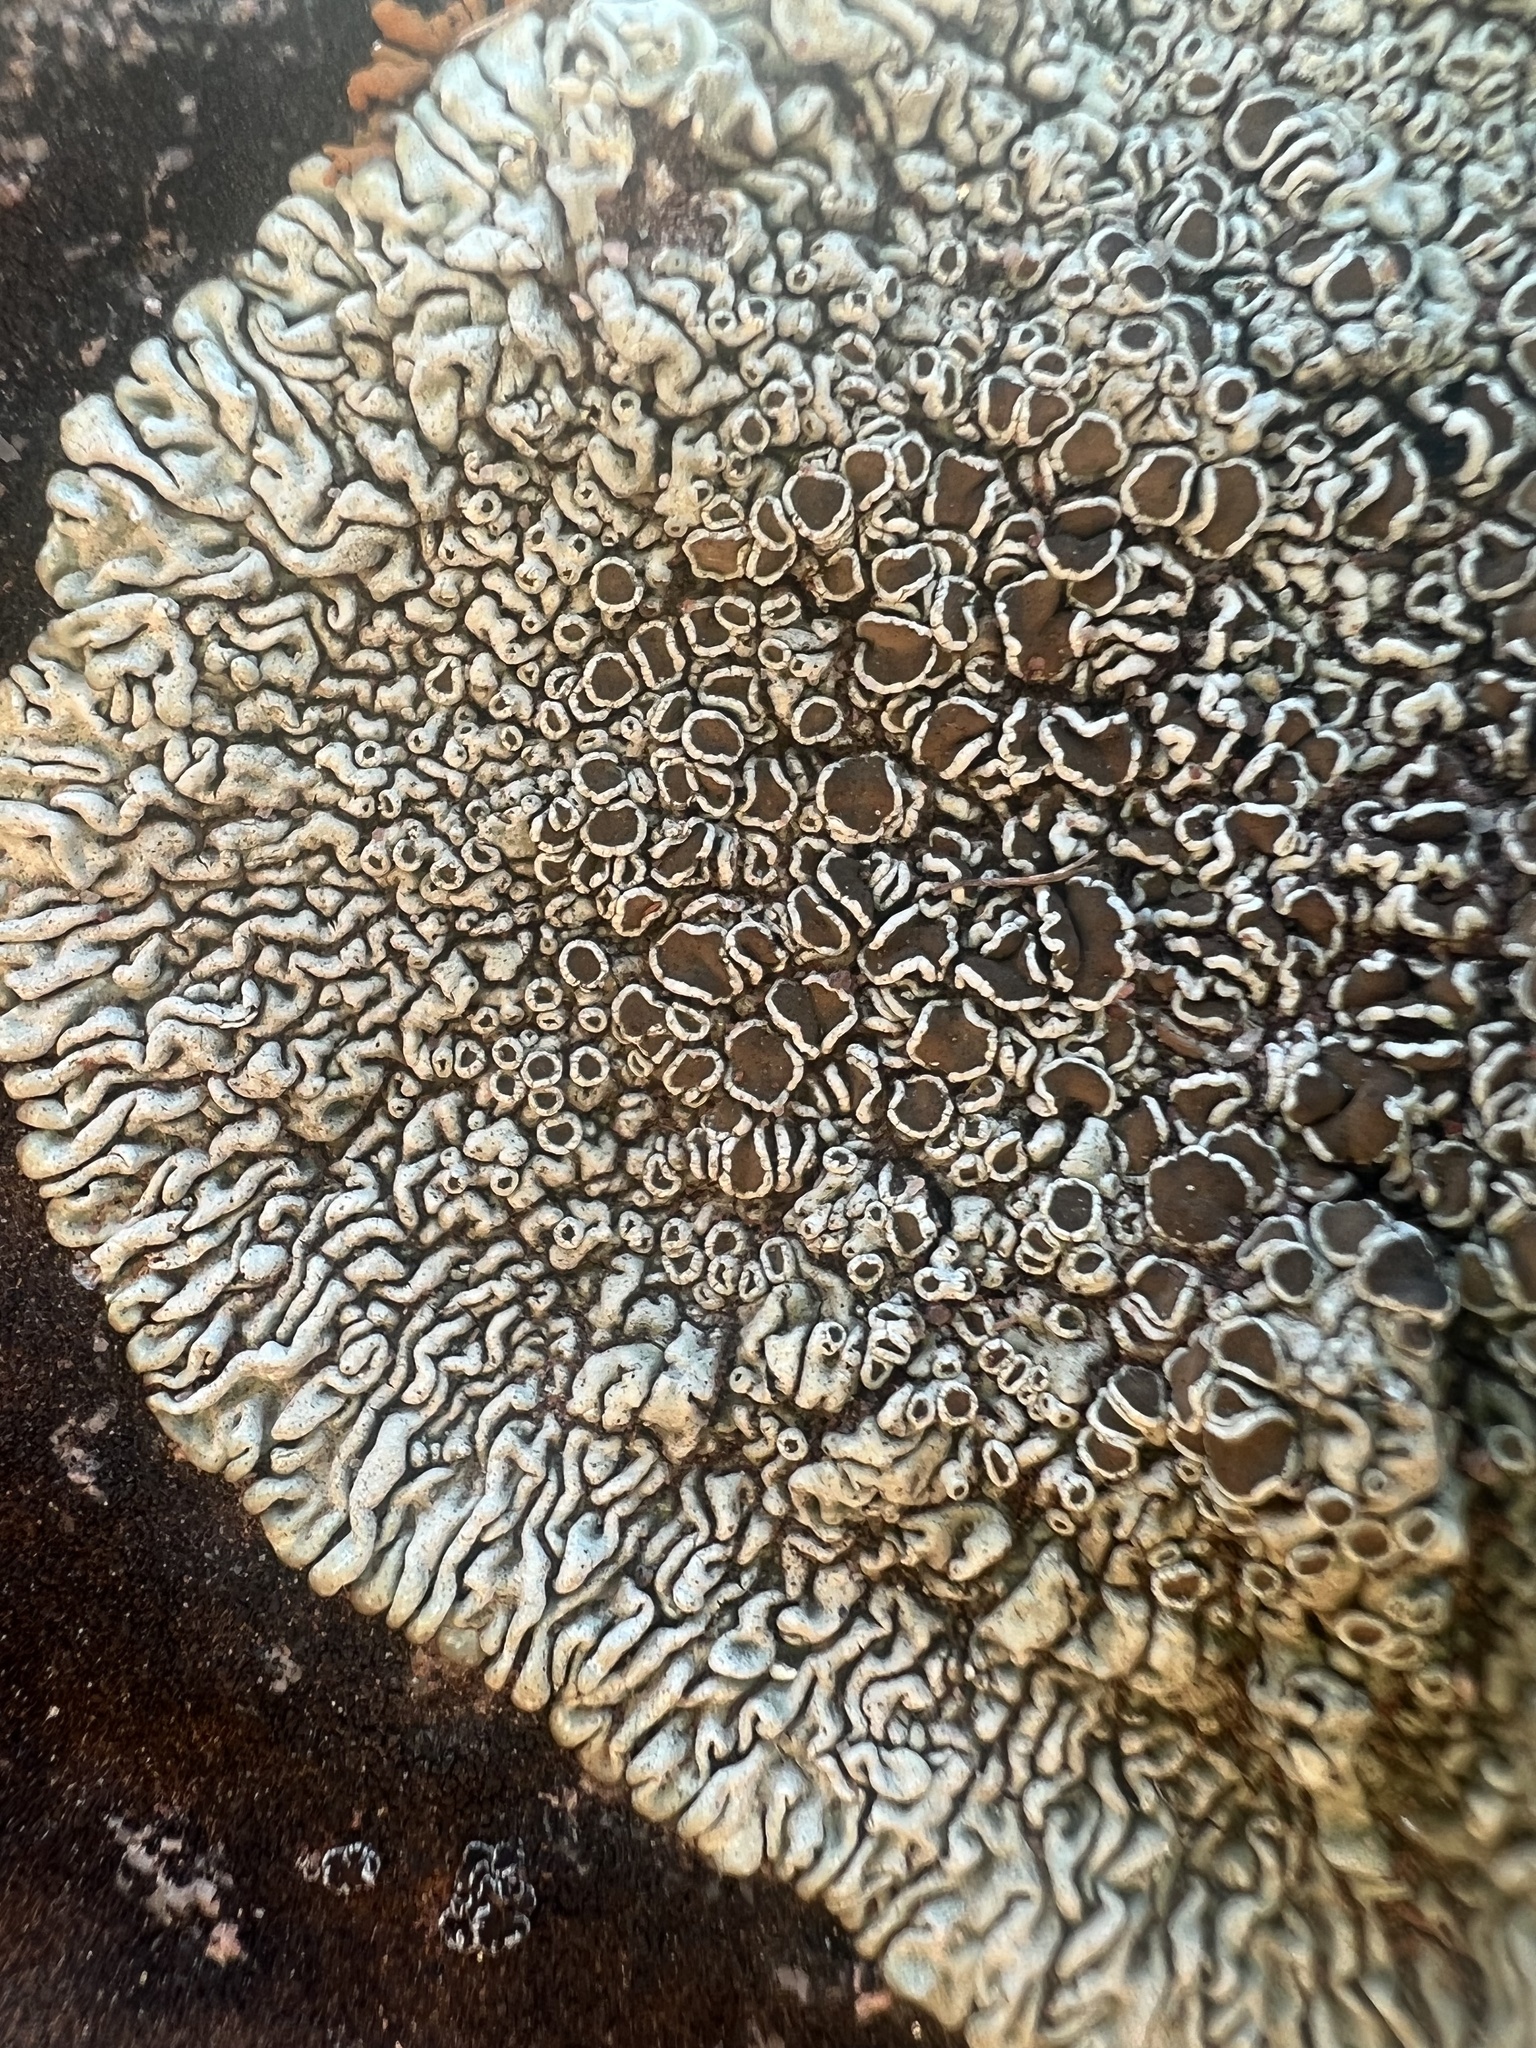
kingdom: Fungi
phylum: Ascomycota
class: Lecanoromycetes
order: Lecanorales
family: Lecanoraceae
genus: Protoparmeliopsis
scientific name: Protoparmeliopsis garovaglii
